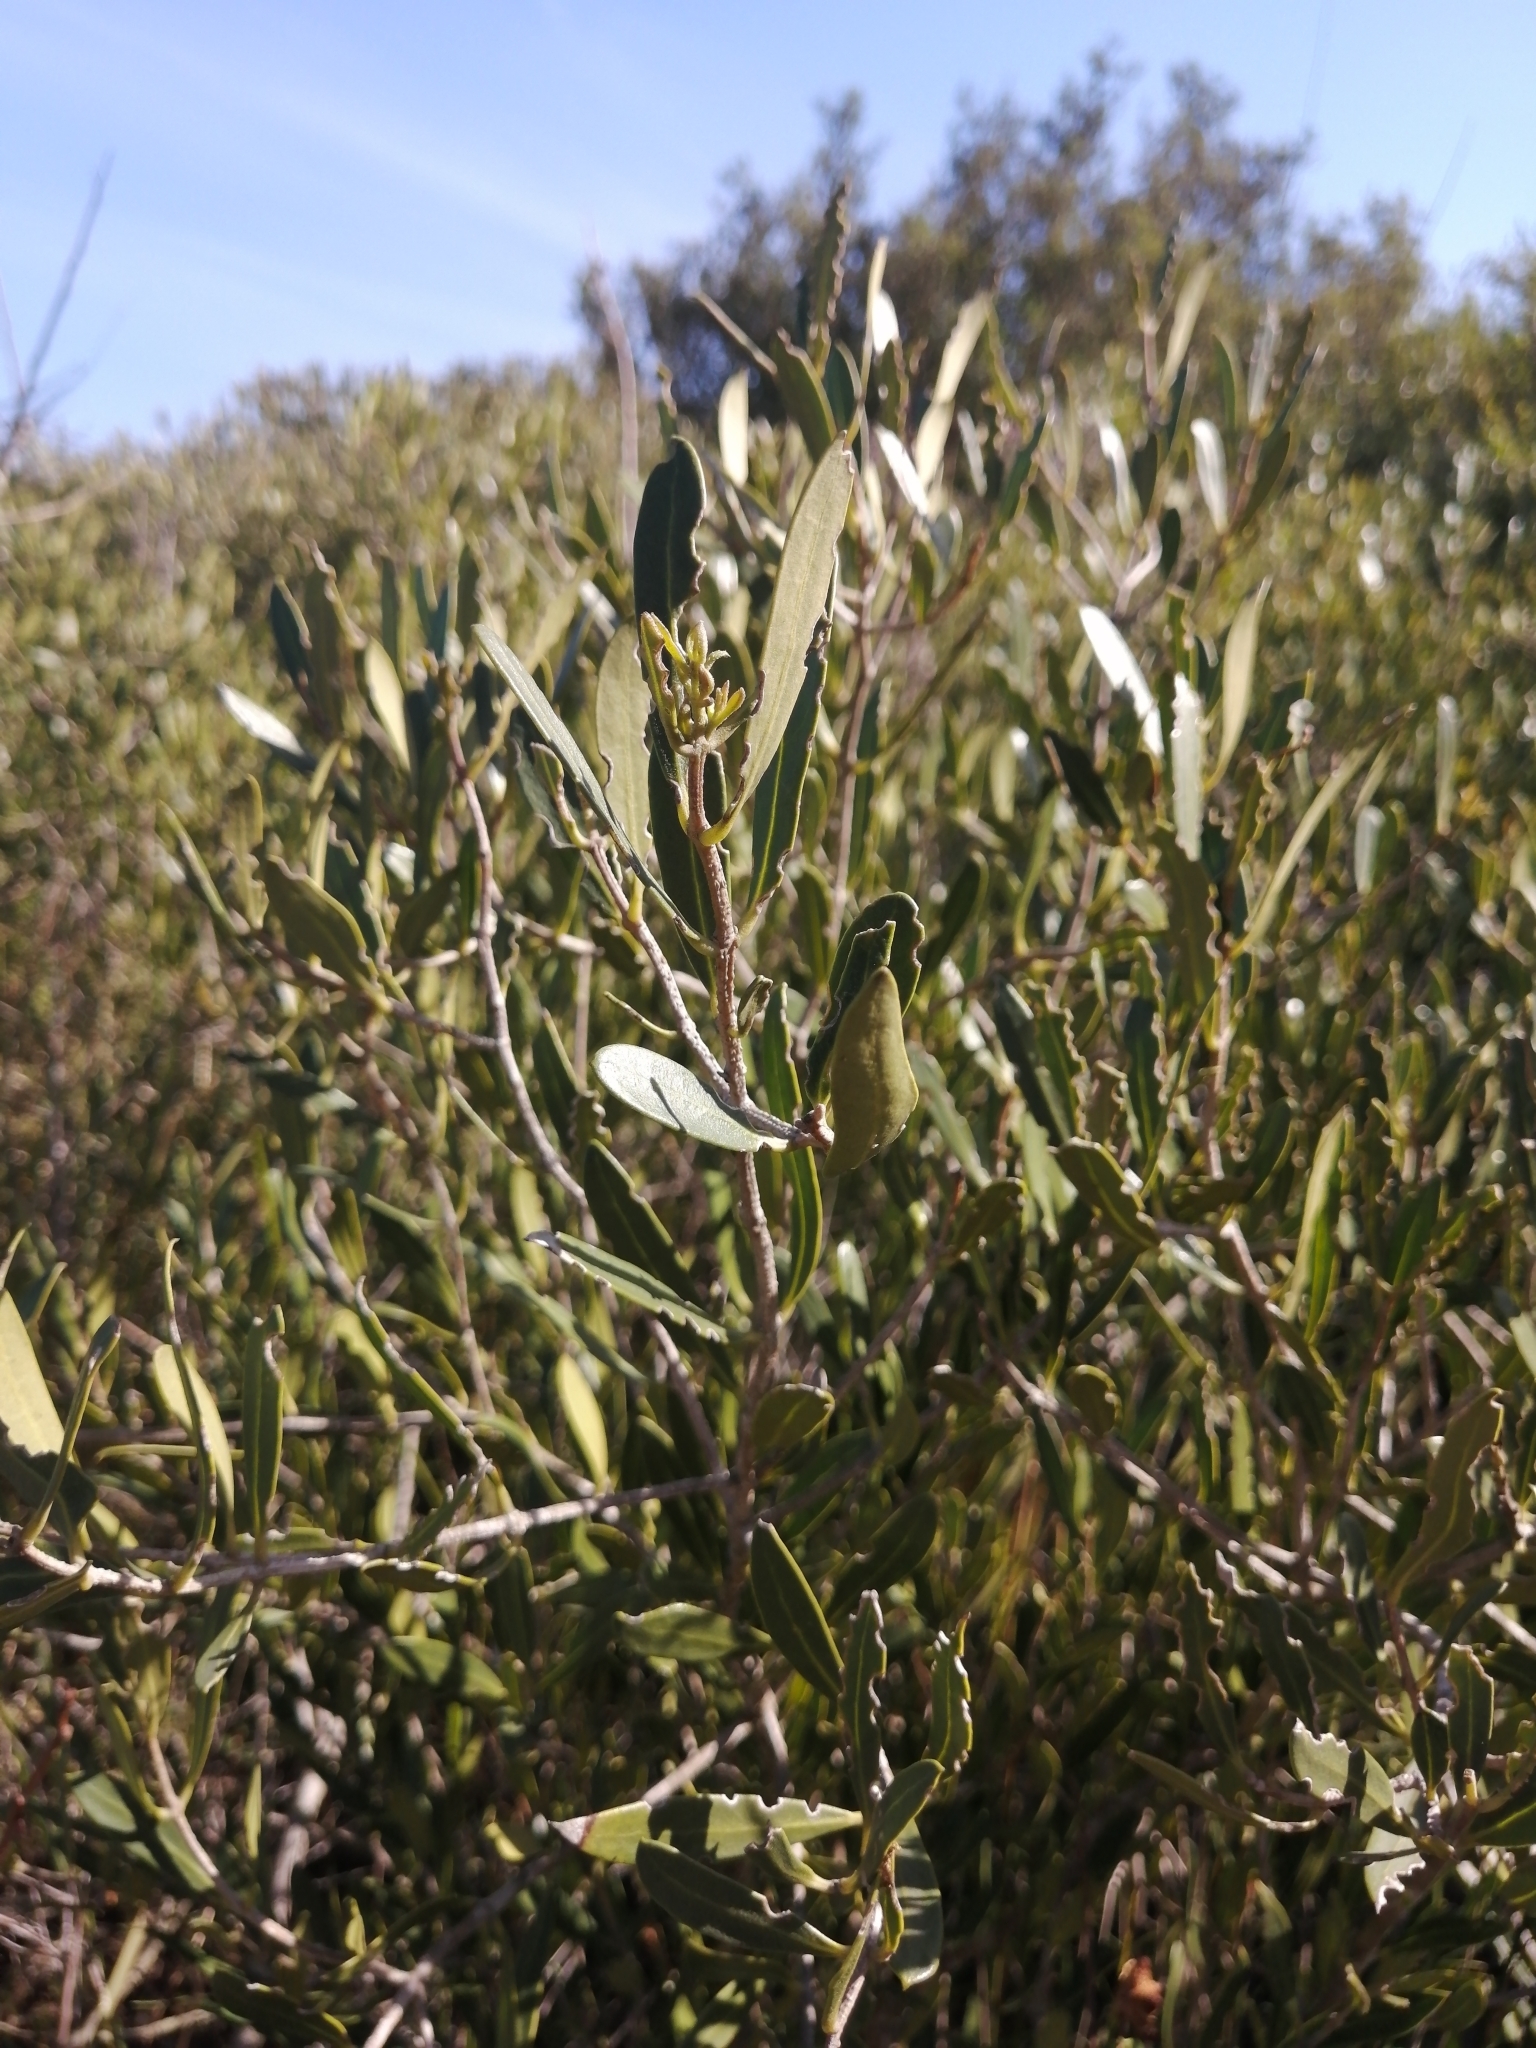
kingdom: Plantae
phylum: Tracheophyta
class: Magnoliopsida
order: Lamiales
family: Oleaceae
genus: Olea
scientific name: Olea exasperata
